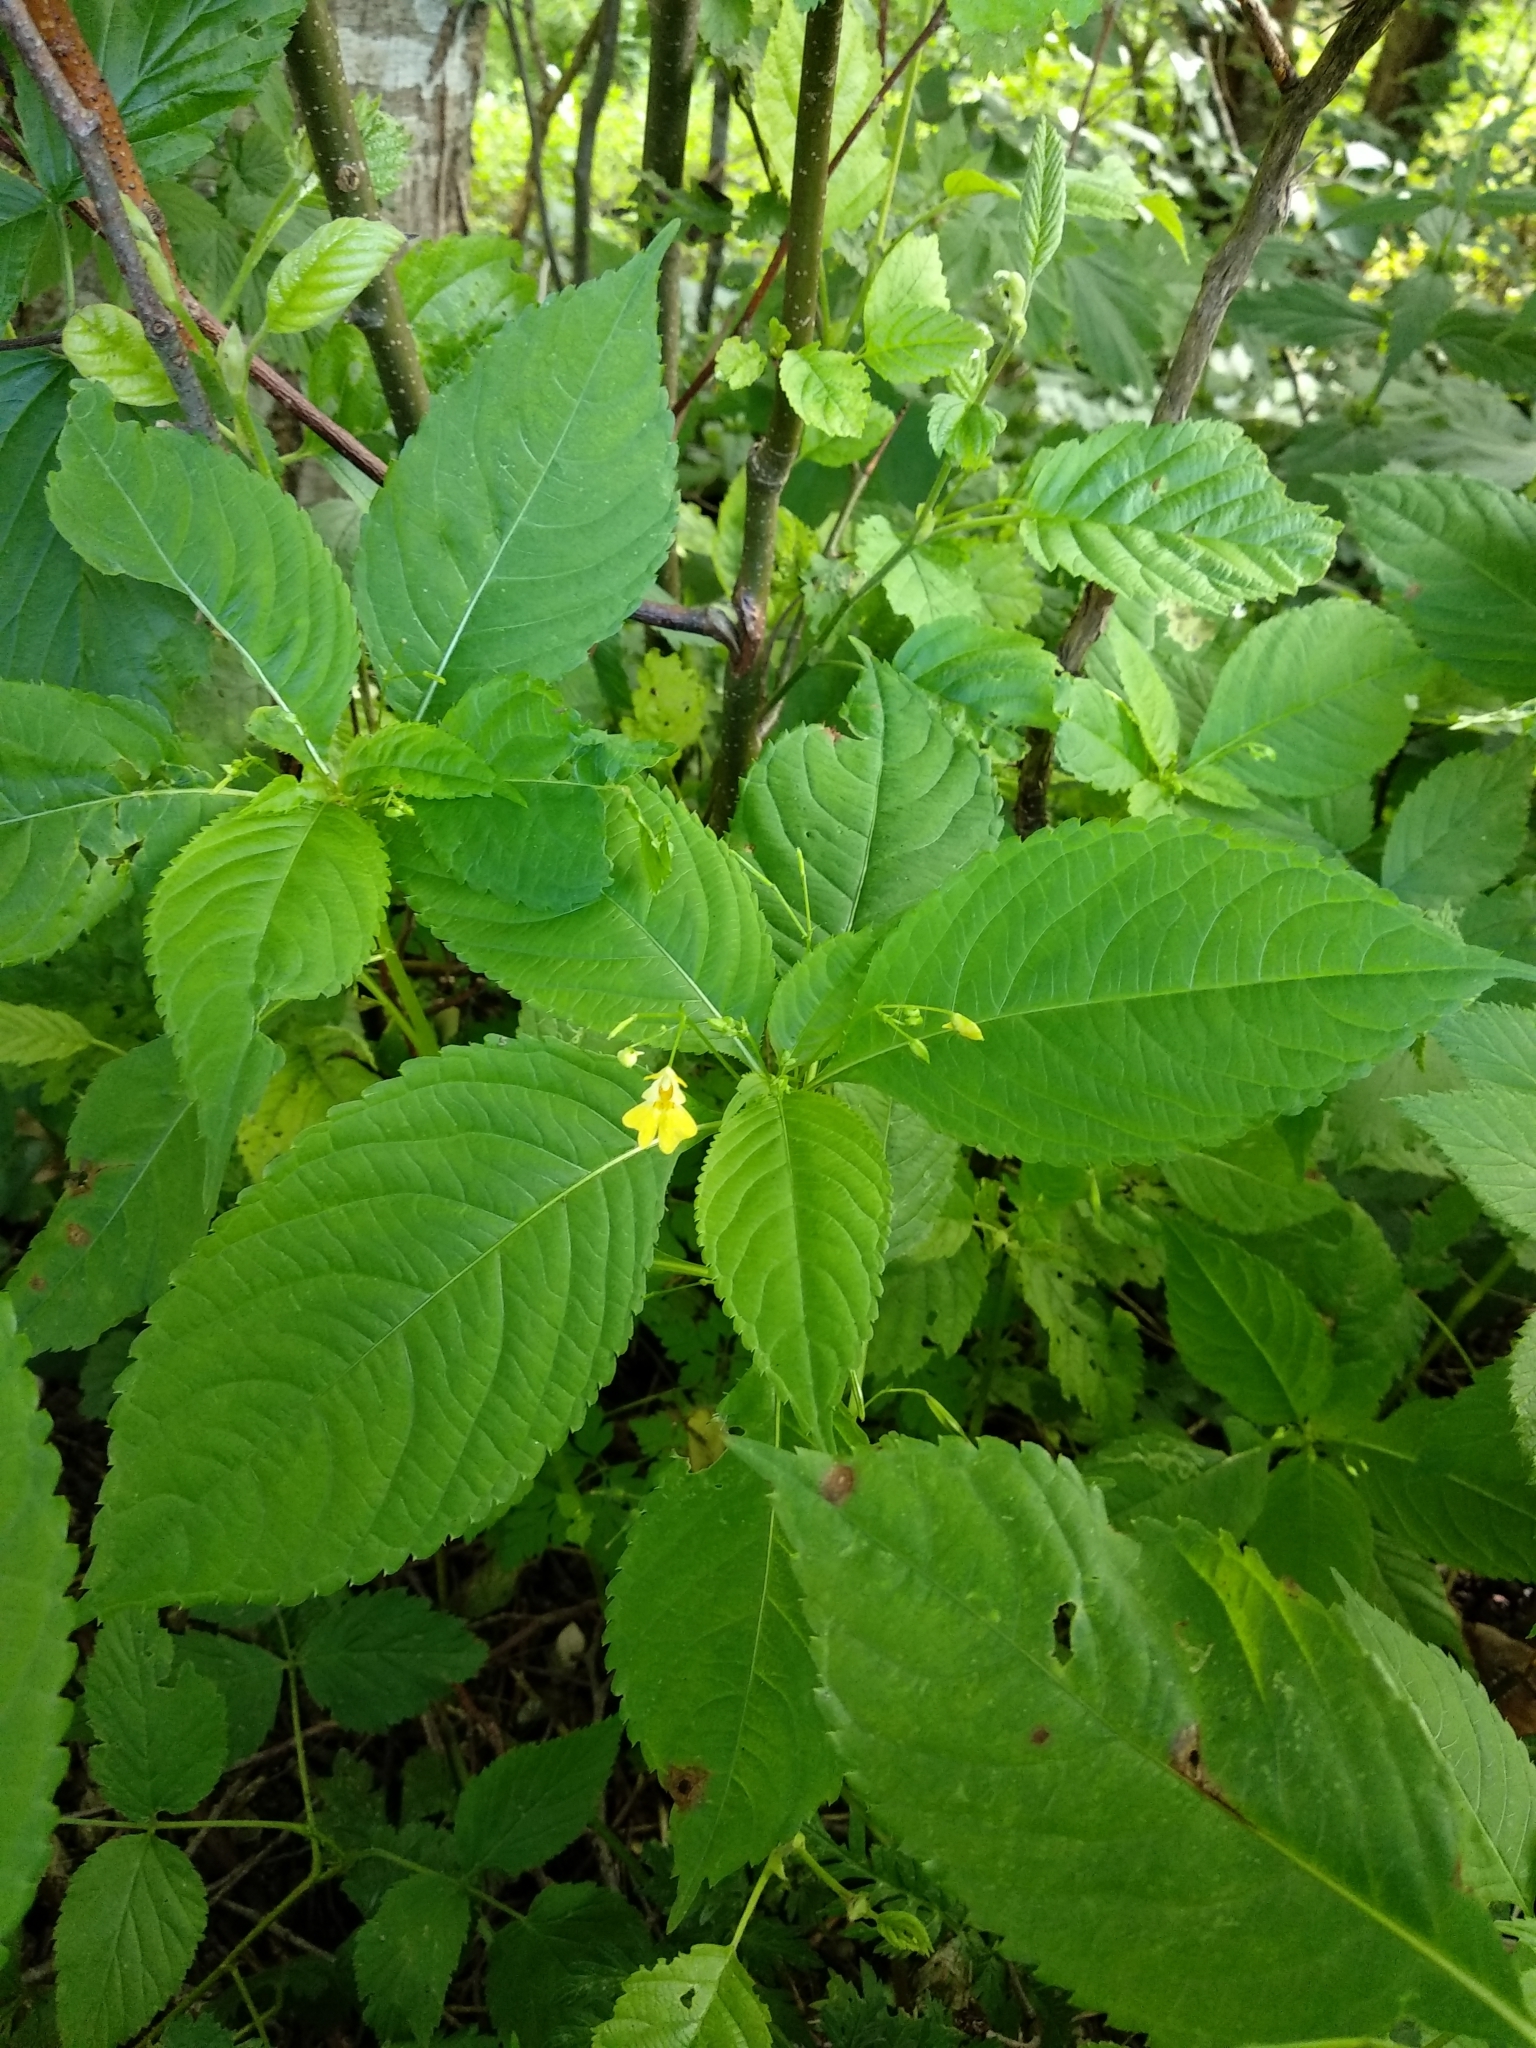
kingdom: Plantae
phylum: Tracheophyta
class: Magnoliopsida
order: Ericales
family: Balsaminaceae
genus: Impatiens
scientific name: Impatiens parviflora
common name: Small balsam
